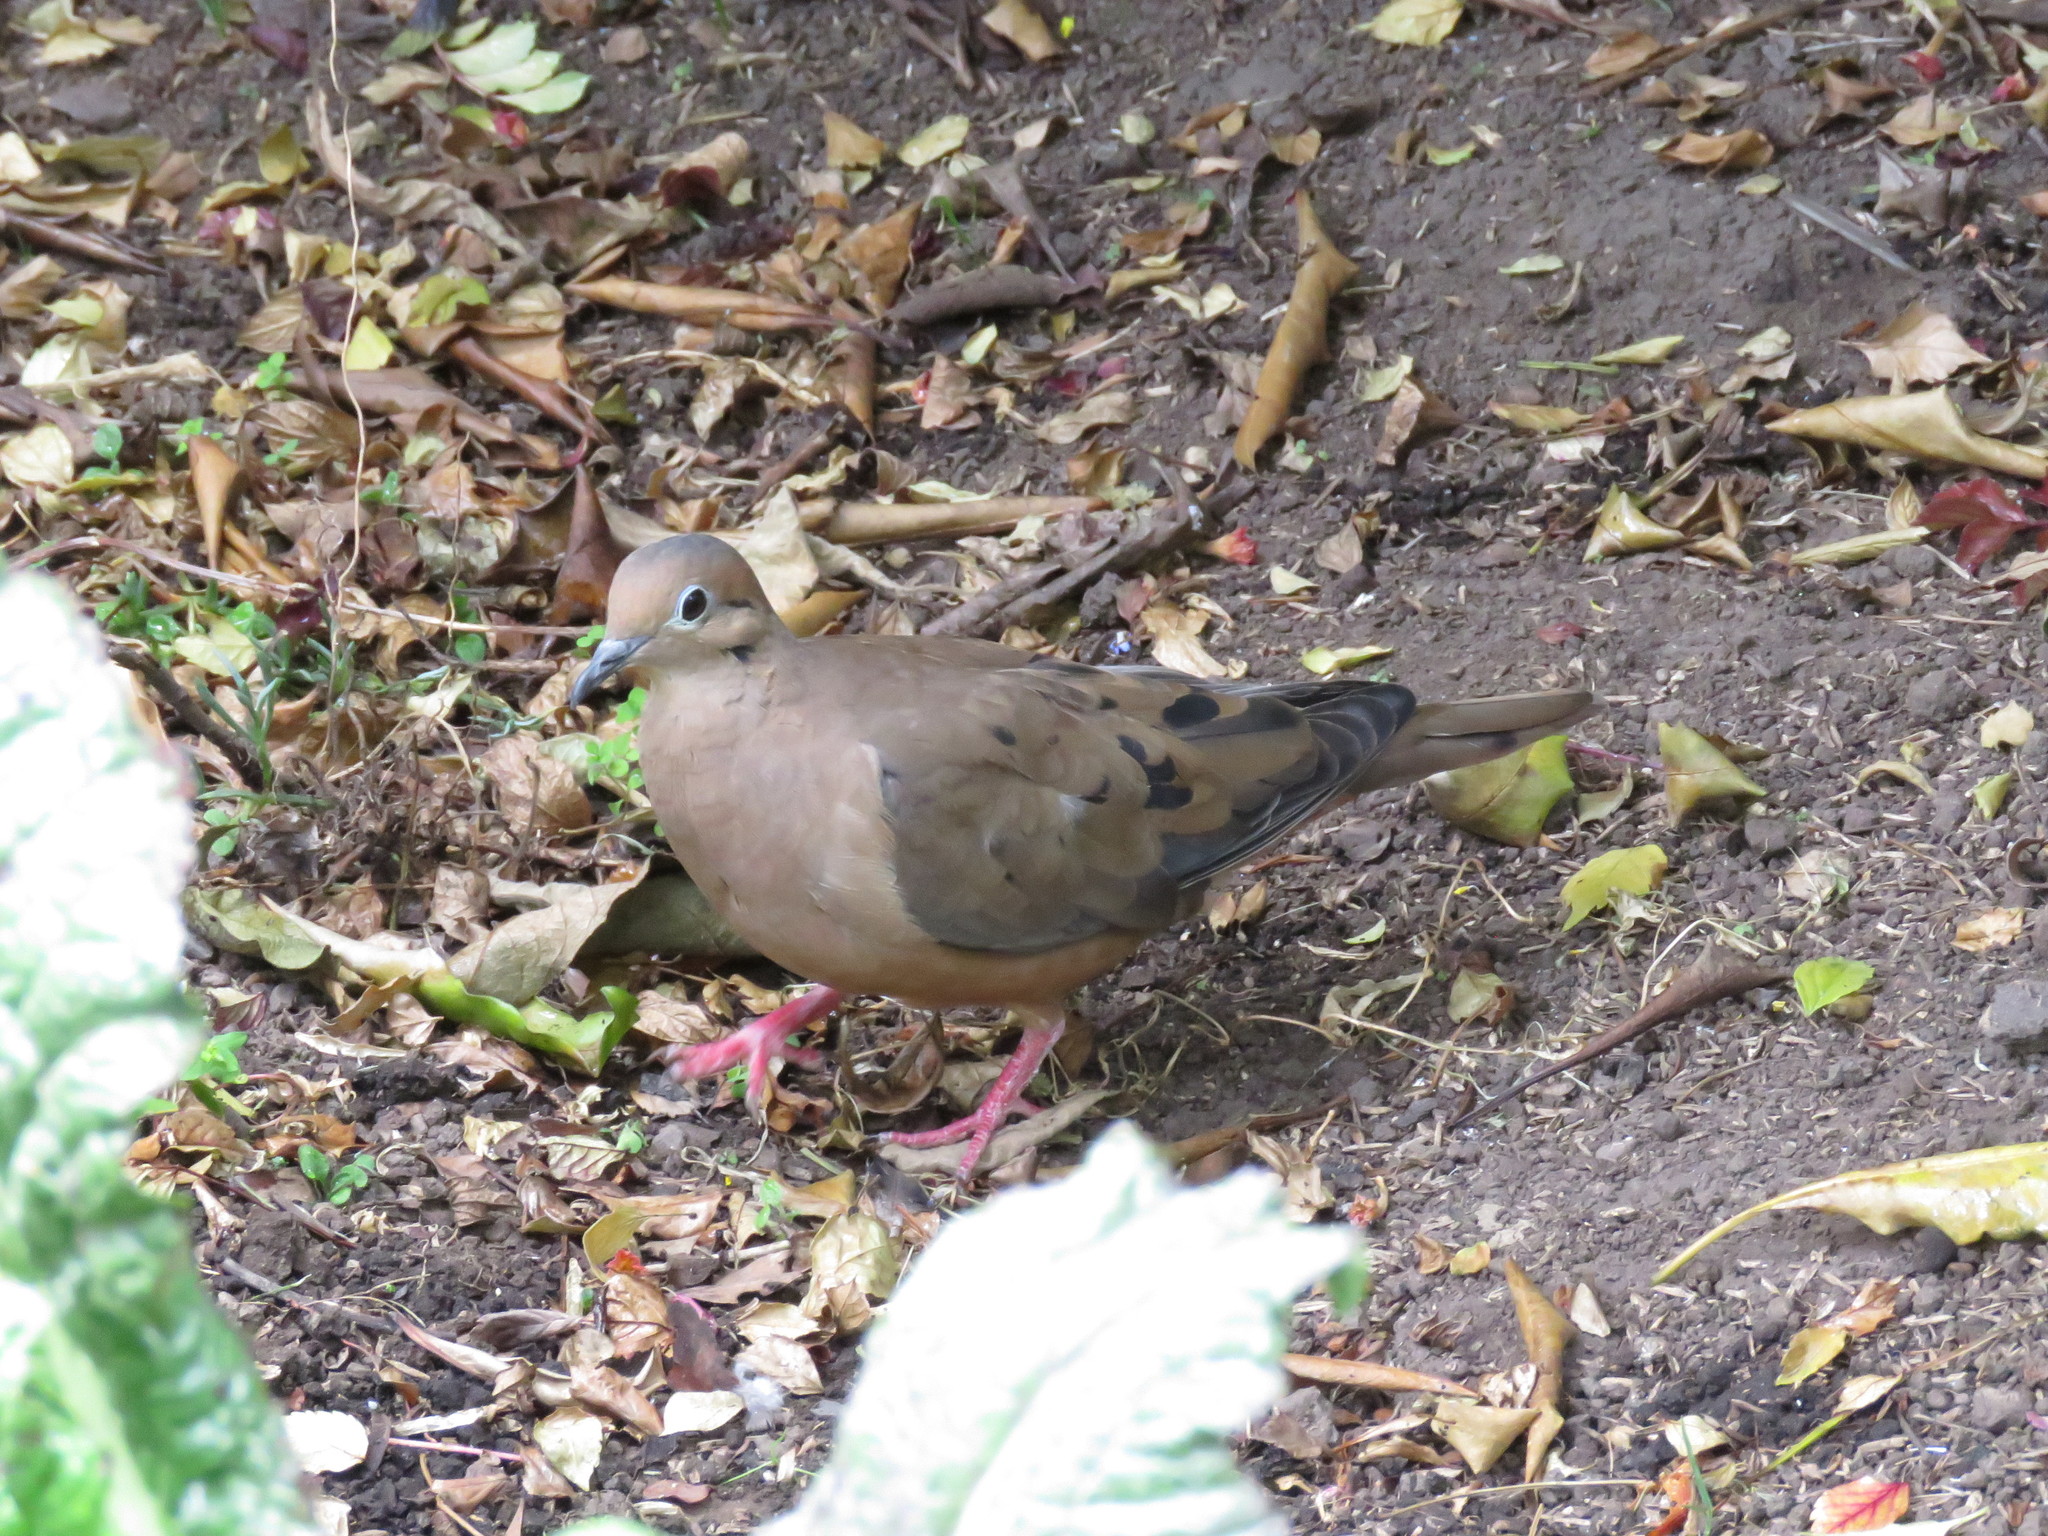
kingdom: Animalia
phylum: Chordata
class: Aves
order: Columbiformes
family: Columbidae
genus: Zenaida
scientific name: Zenaida auriculata
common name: Eared dove
